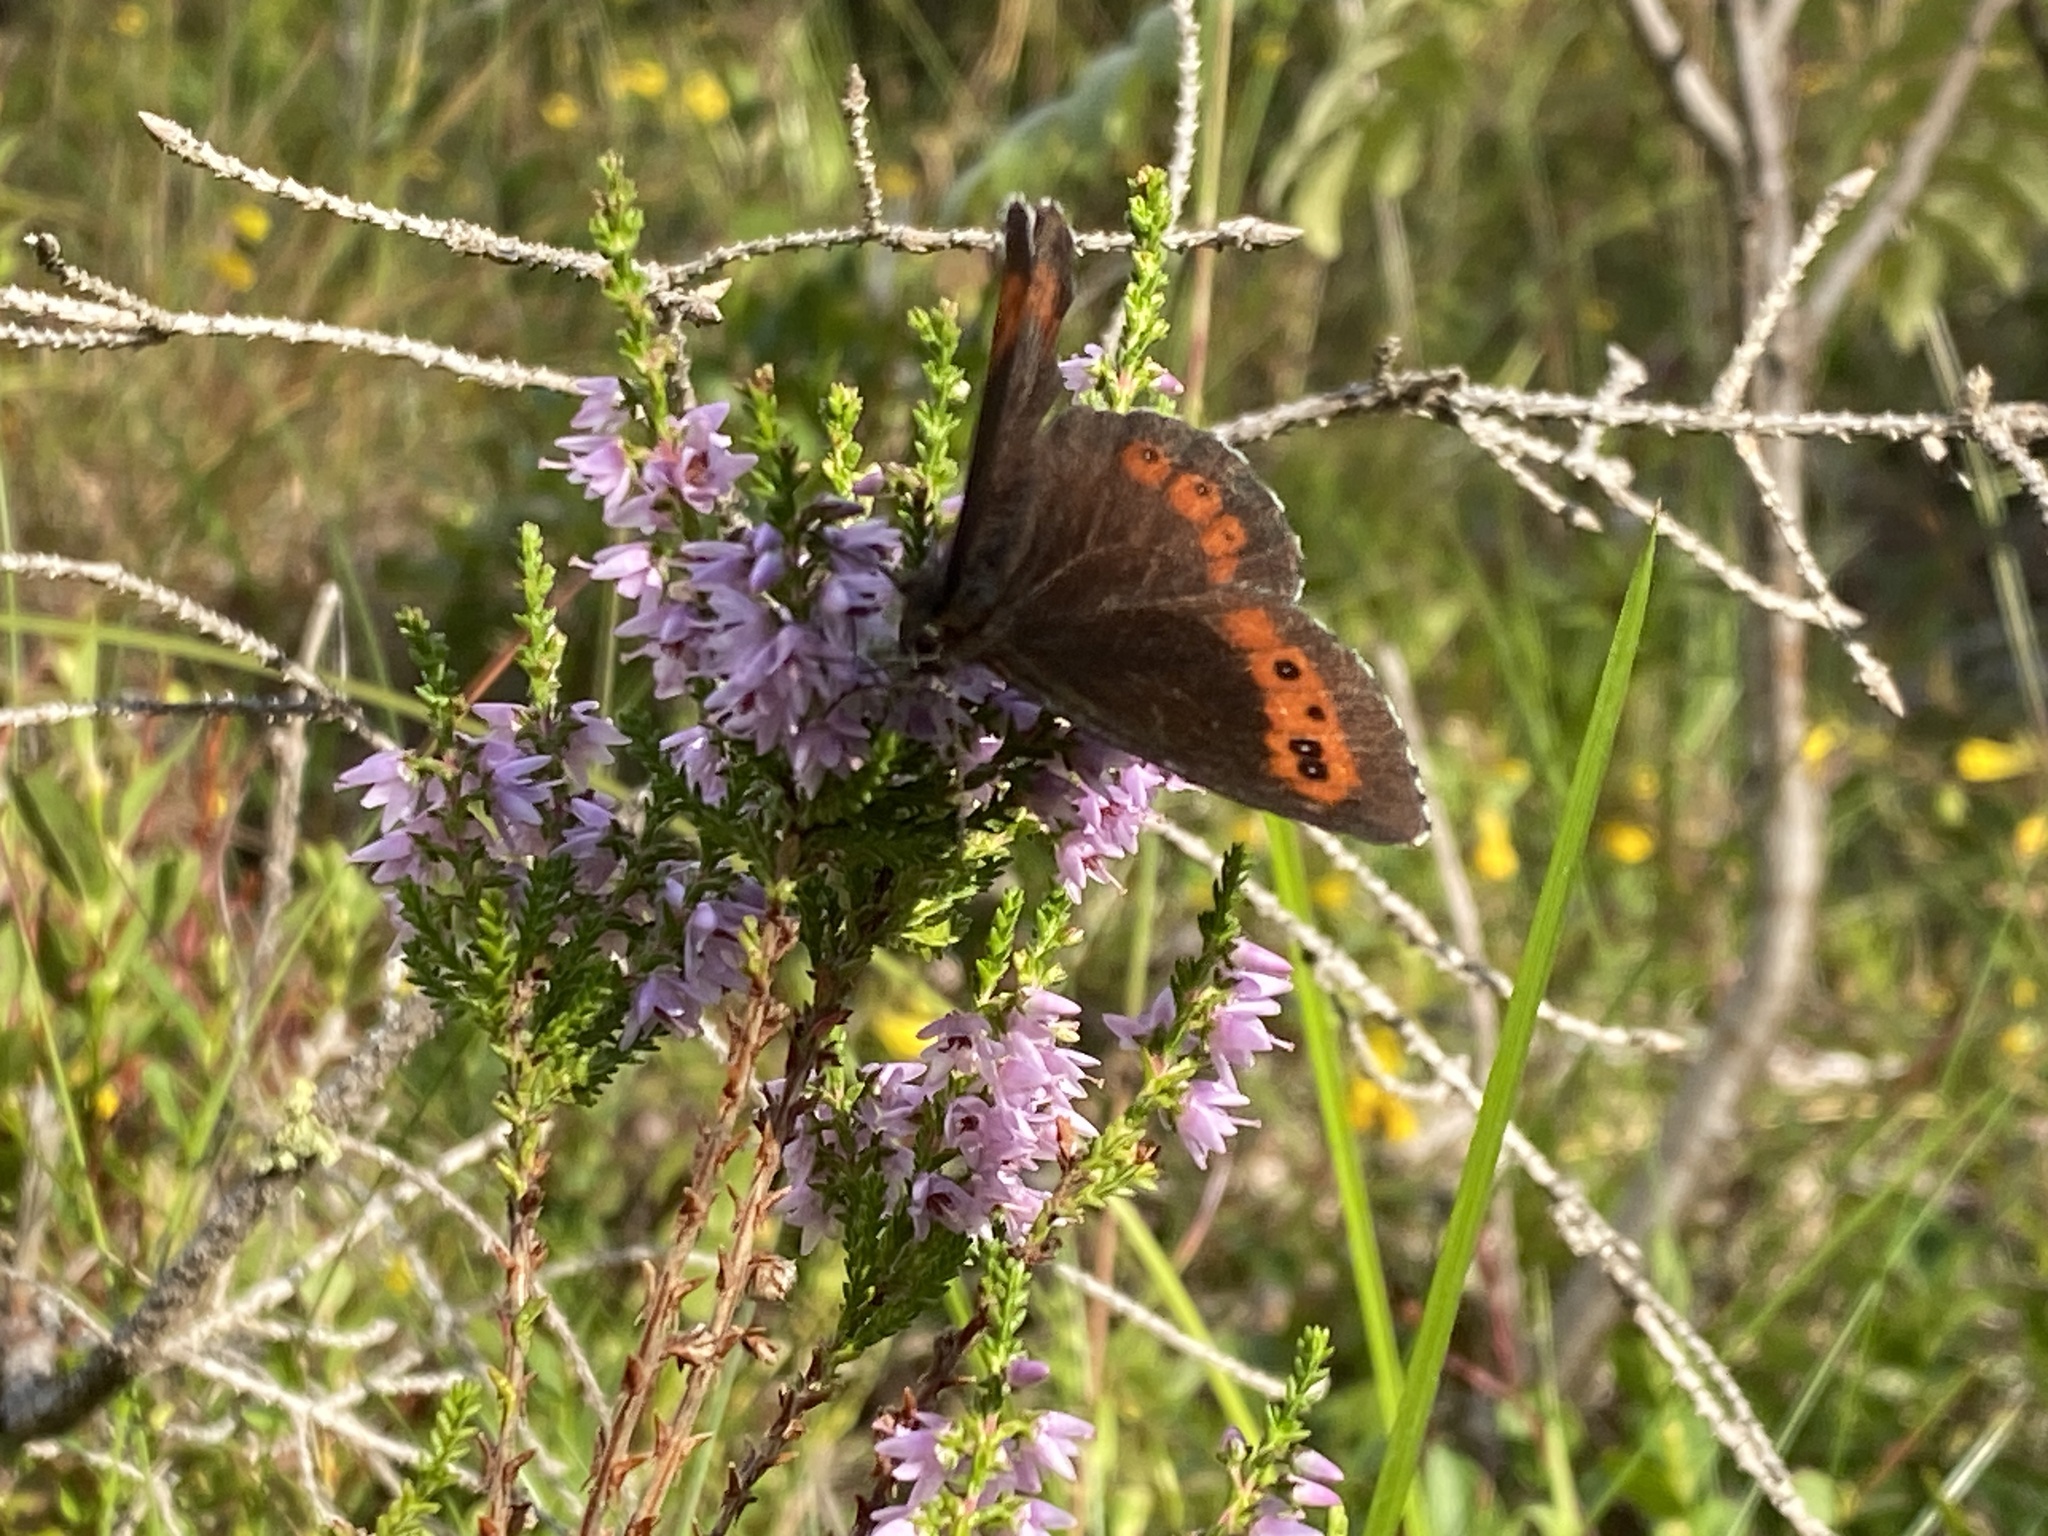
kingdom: Animalia
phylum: Arthropoda
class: Insecta
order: Lepidoptera
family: Nymphalidae
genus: Erebia
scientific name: Erebia ligea
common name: Arran brown
